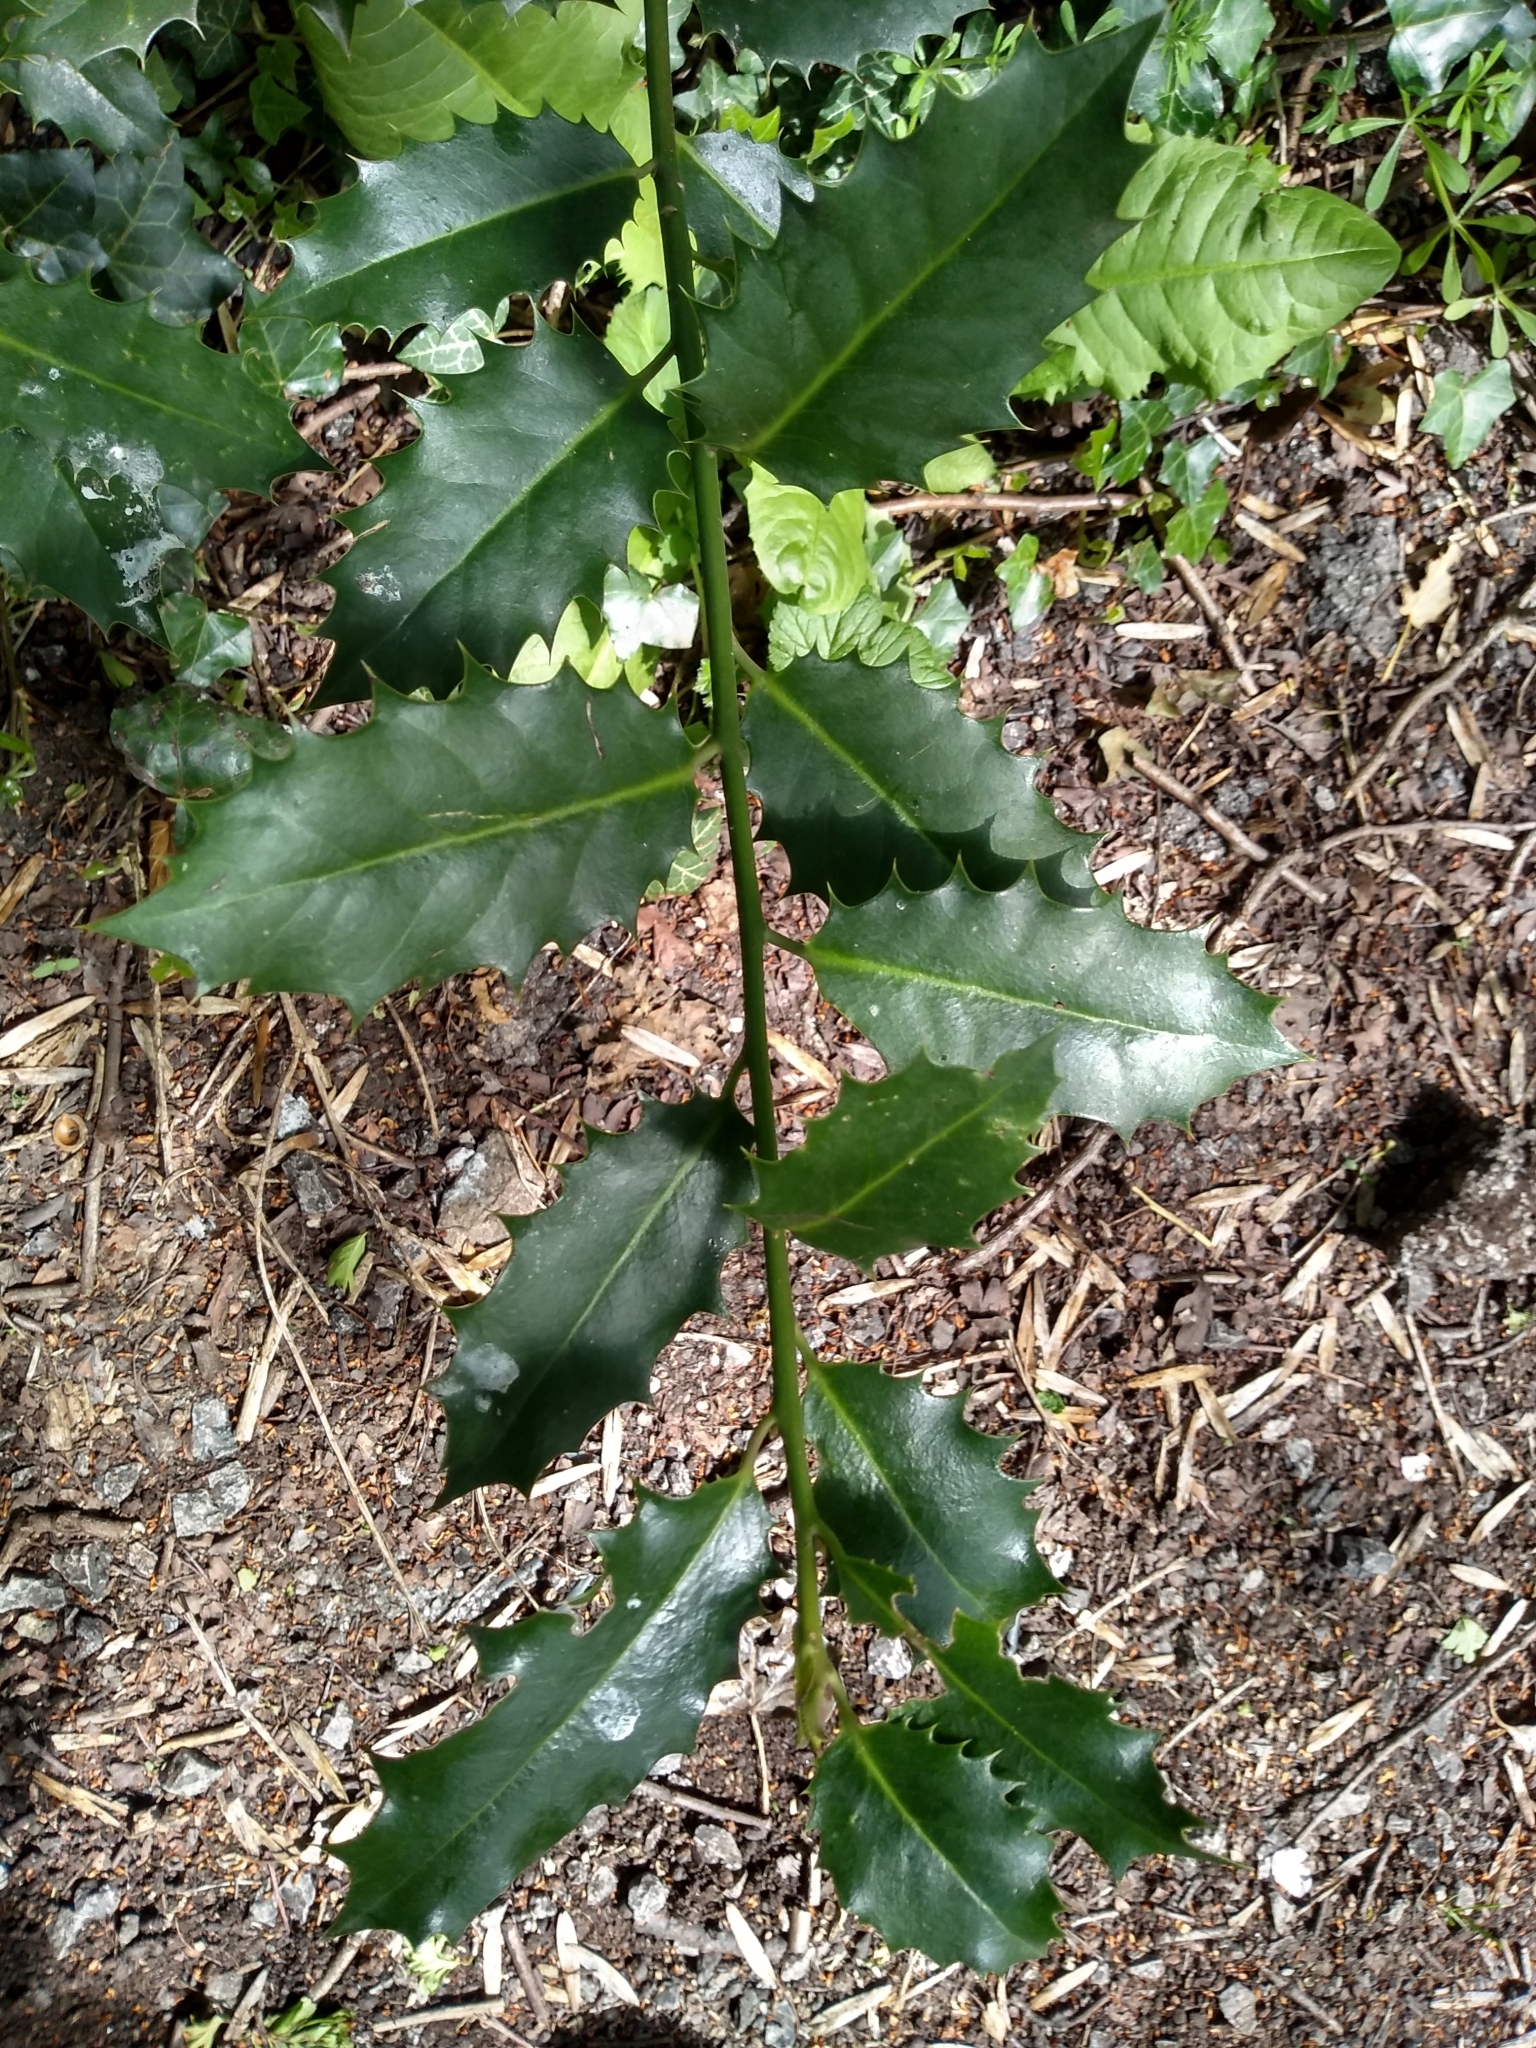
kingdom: Plantae
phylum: Tracheophyta
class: Magnoliopsida
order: Aquifoliales
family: Aquifoliaceae
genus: Ilex
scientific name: Ilex aquifolium
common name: English holly
